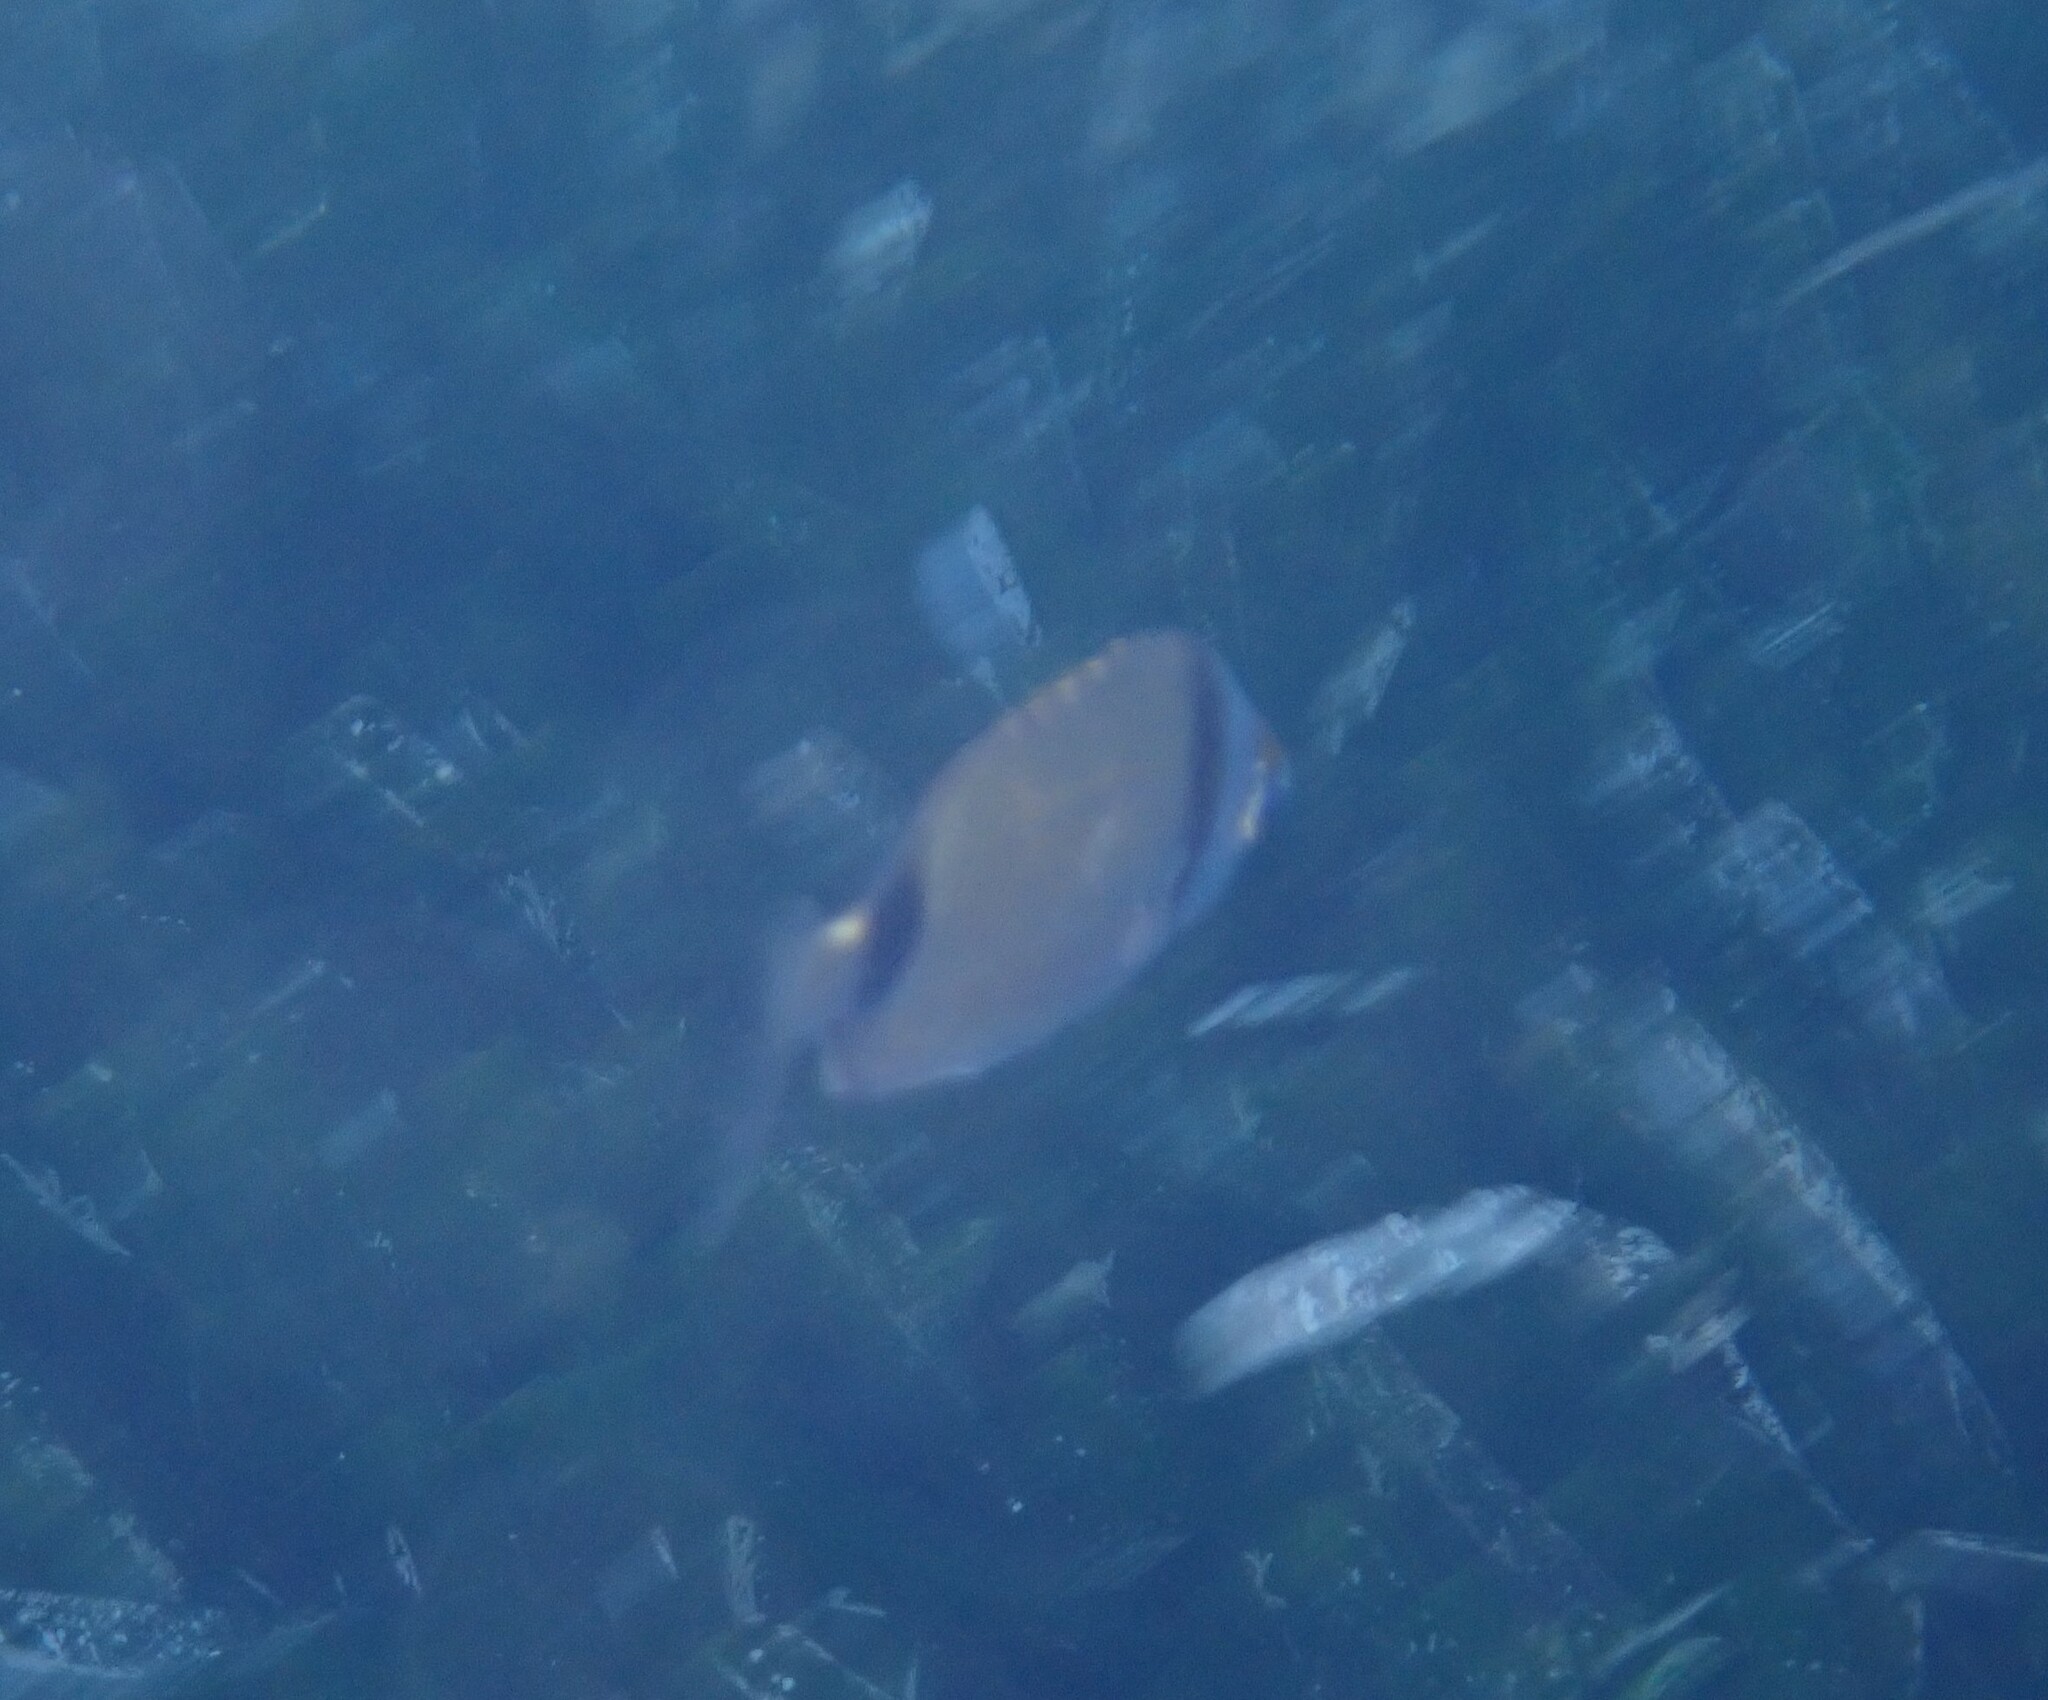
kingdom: Animalia
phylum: Chordata
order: Perciformes
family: Sparidae
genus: Diplodus
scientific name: Diplodus vulgaris
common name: Common two-banded seabream
